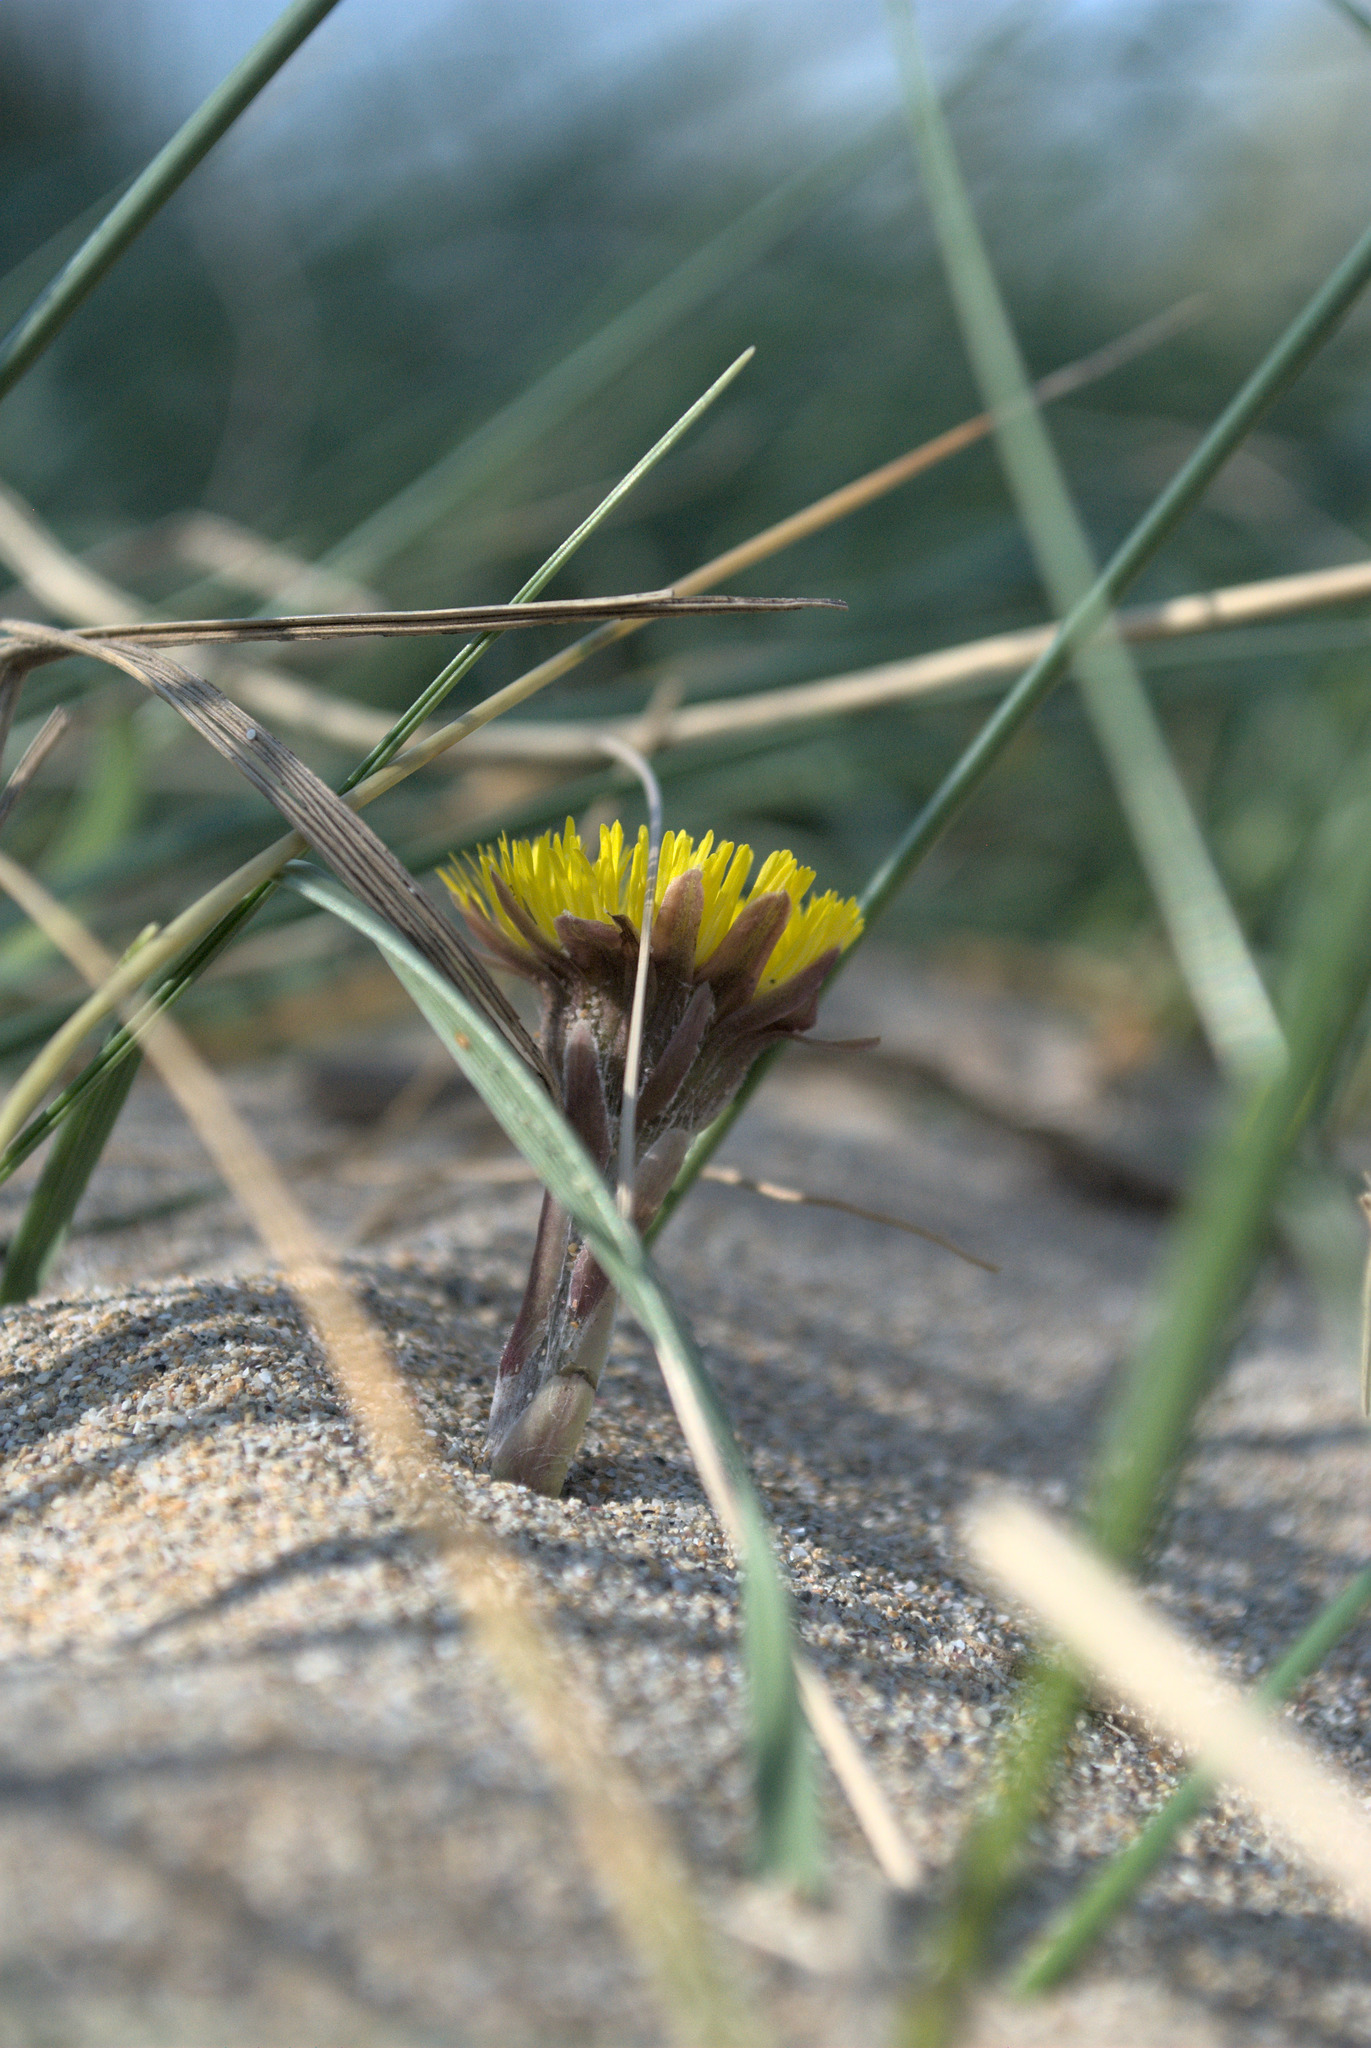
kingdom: Plantae
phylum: Tracheophyta
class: Magnoliopsida
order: Asterales
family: Asteraceae
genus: Tussilago
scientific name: Tussilago farfara
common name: Coltsfoot
